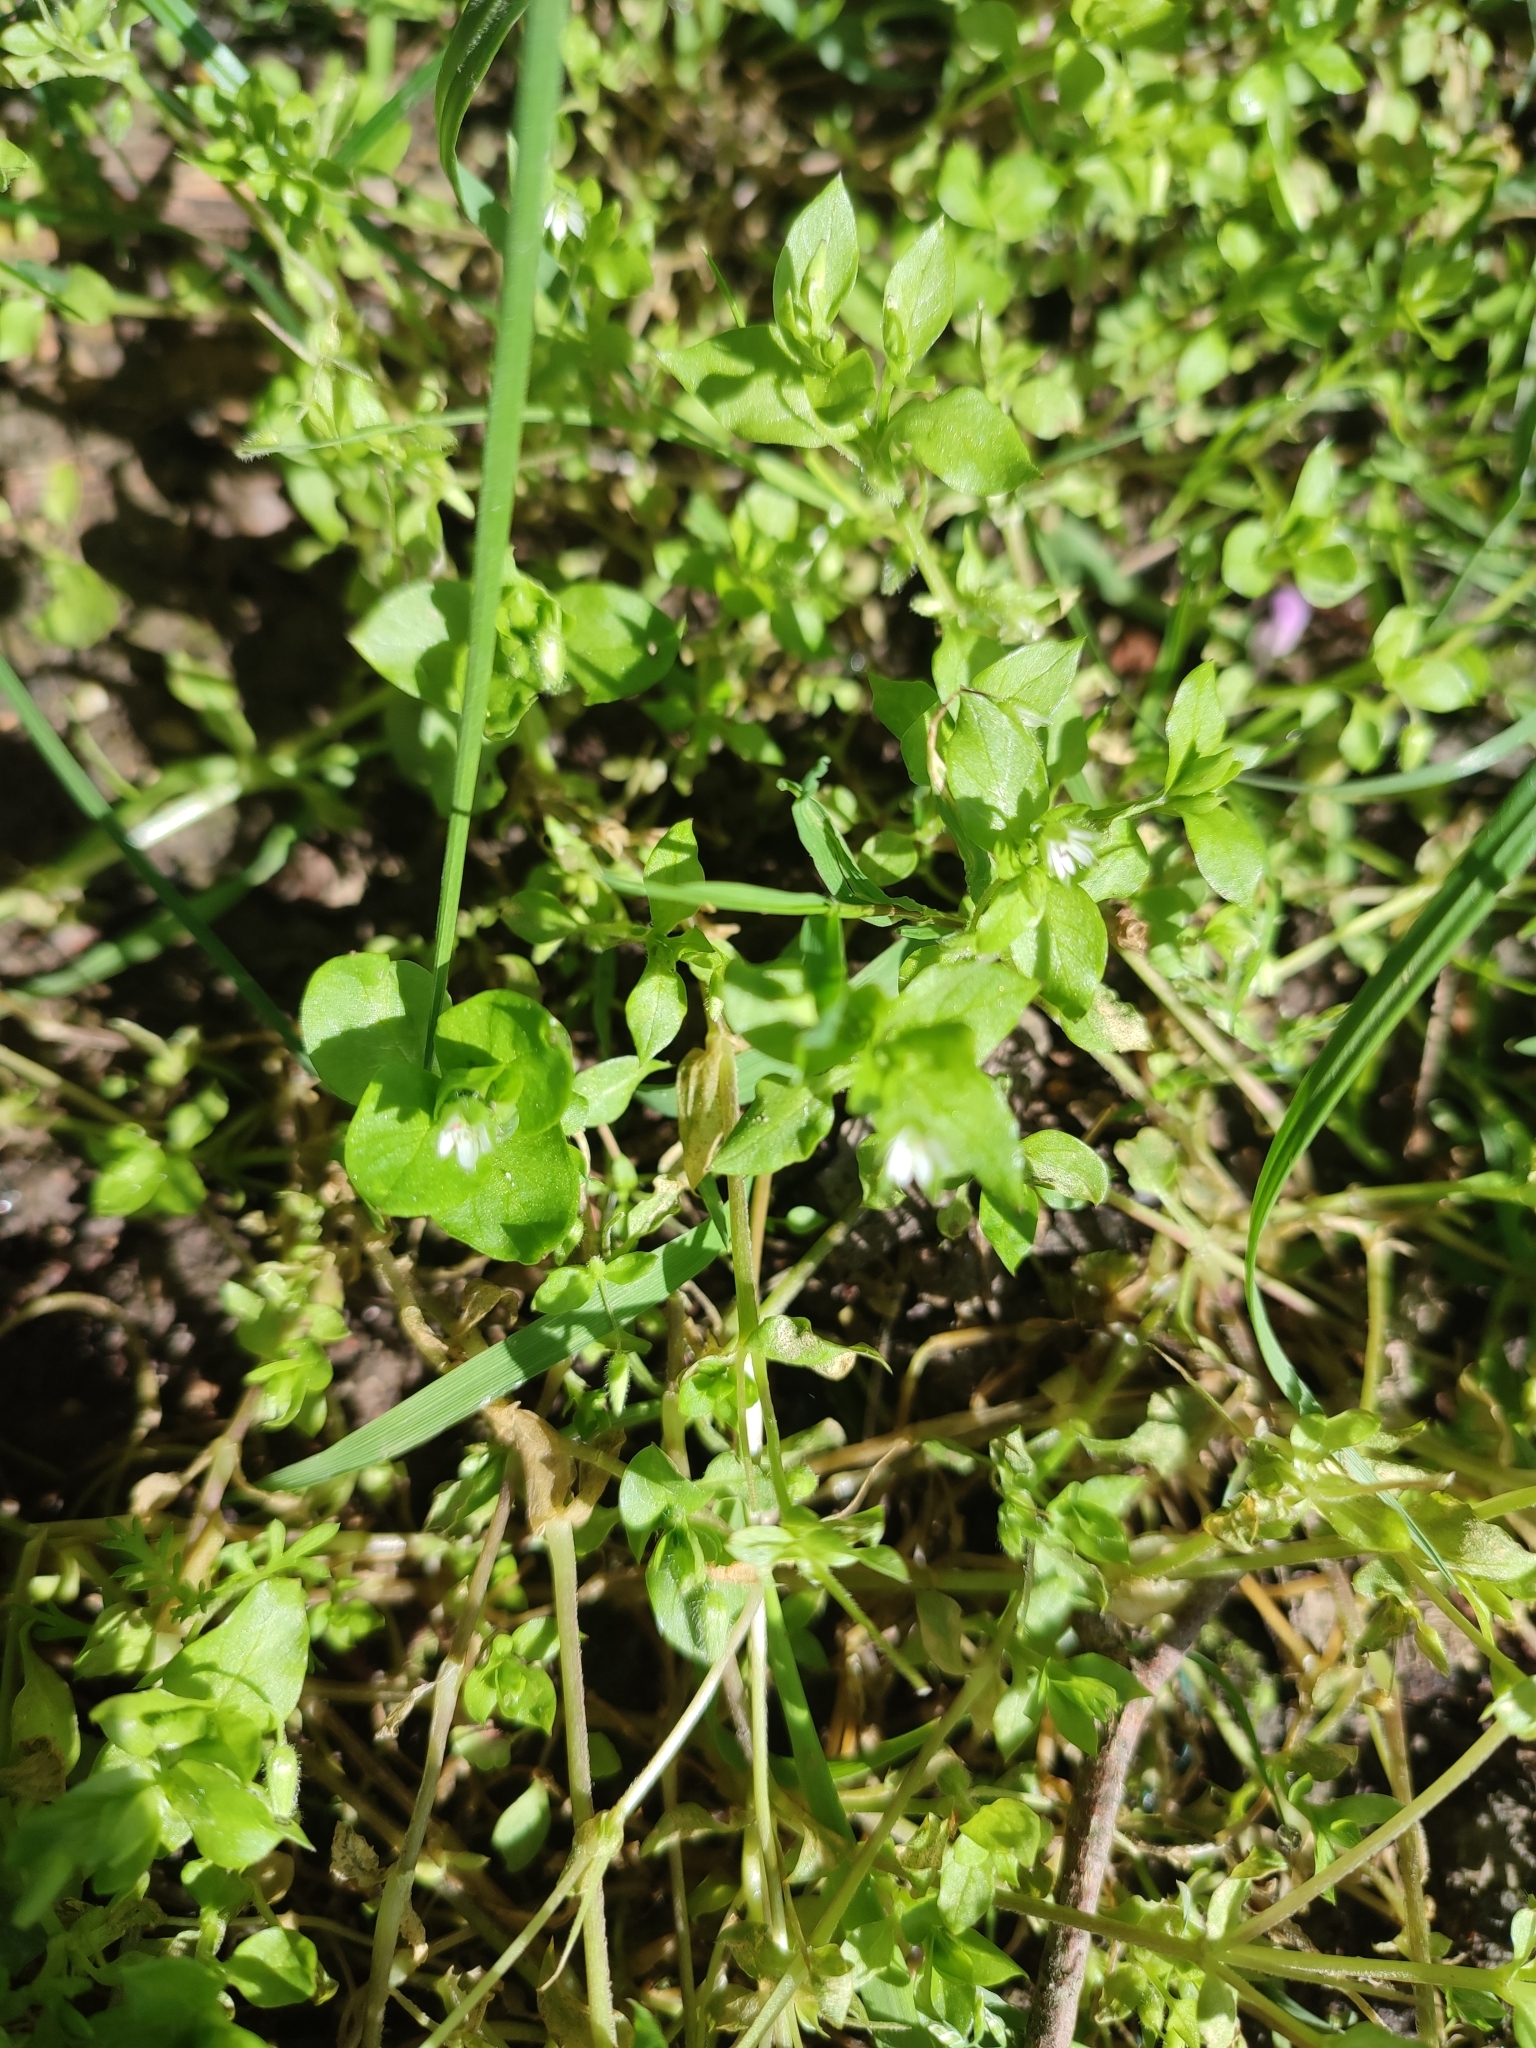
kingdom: Plantae
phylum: Tracheophyta
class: Magnoliopsida
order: Caryophyllales
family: Caryophyllaceae
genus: Stellaria
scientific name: Stellaria media
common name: Common chickweed
